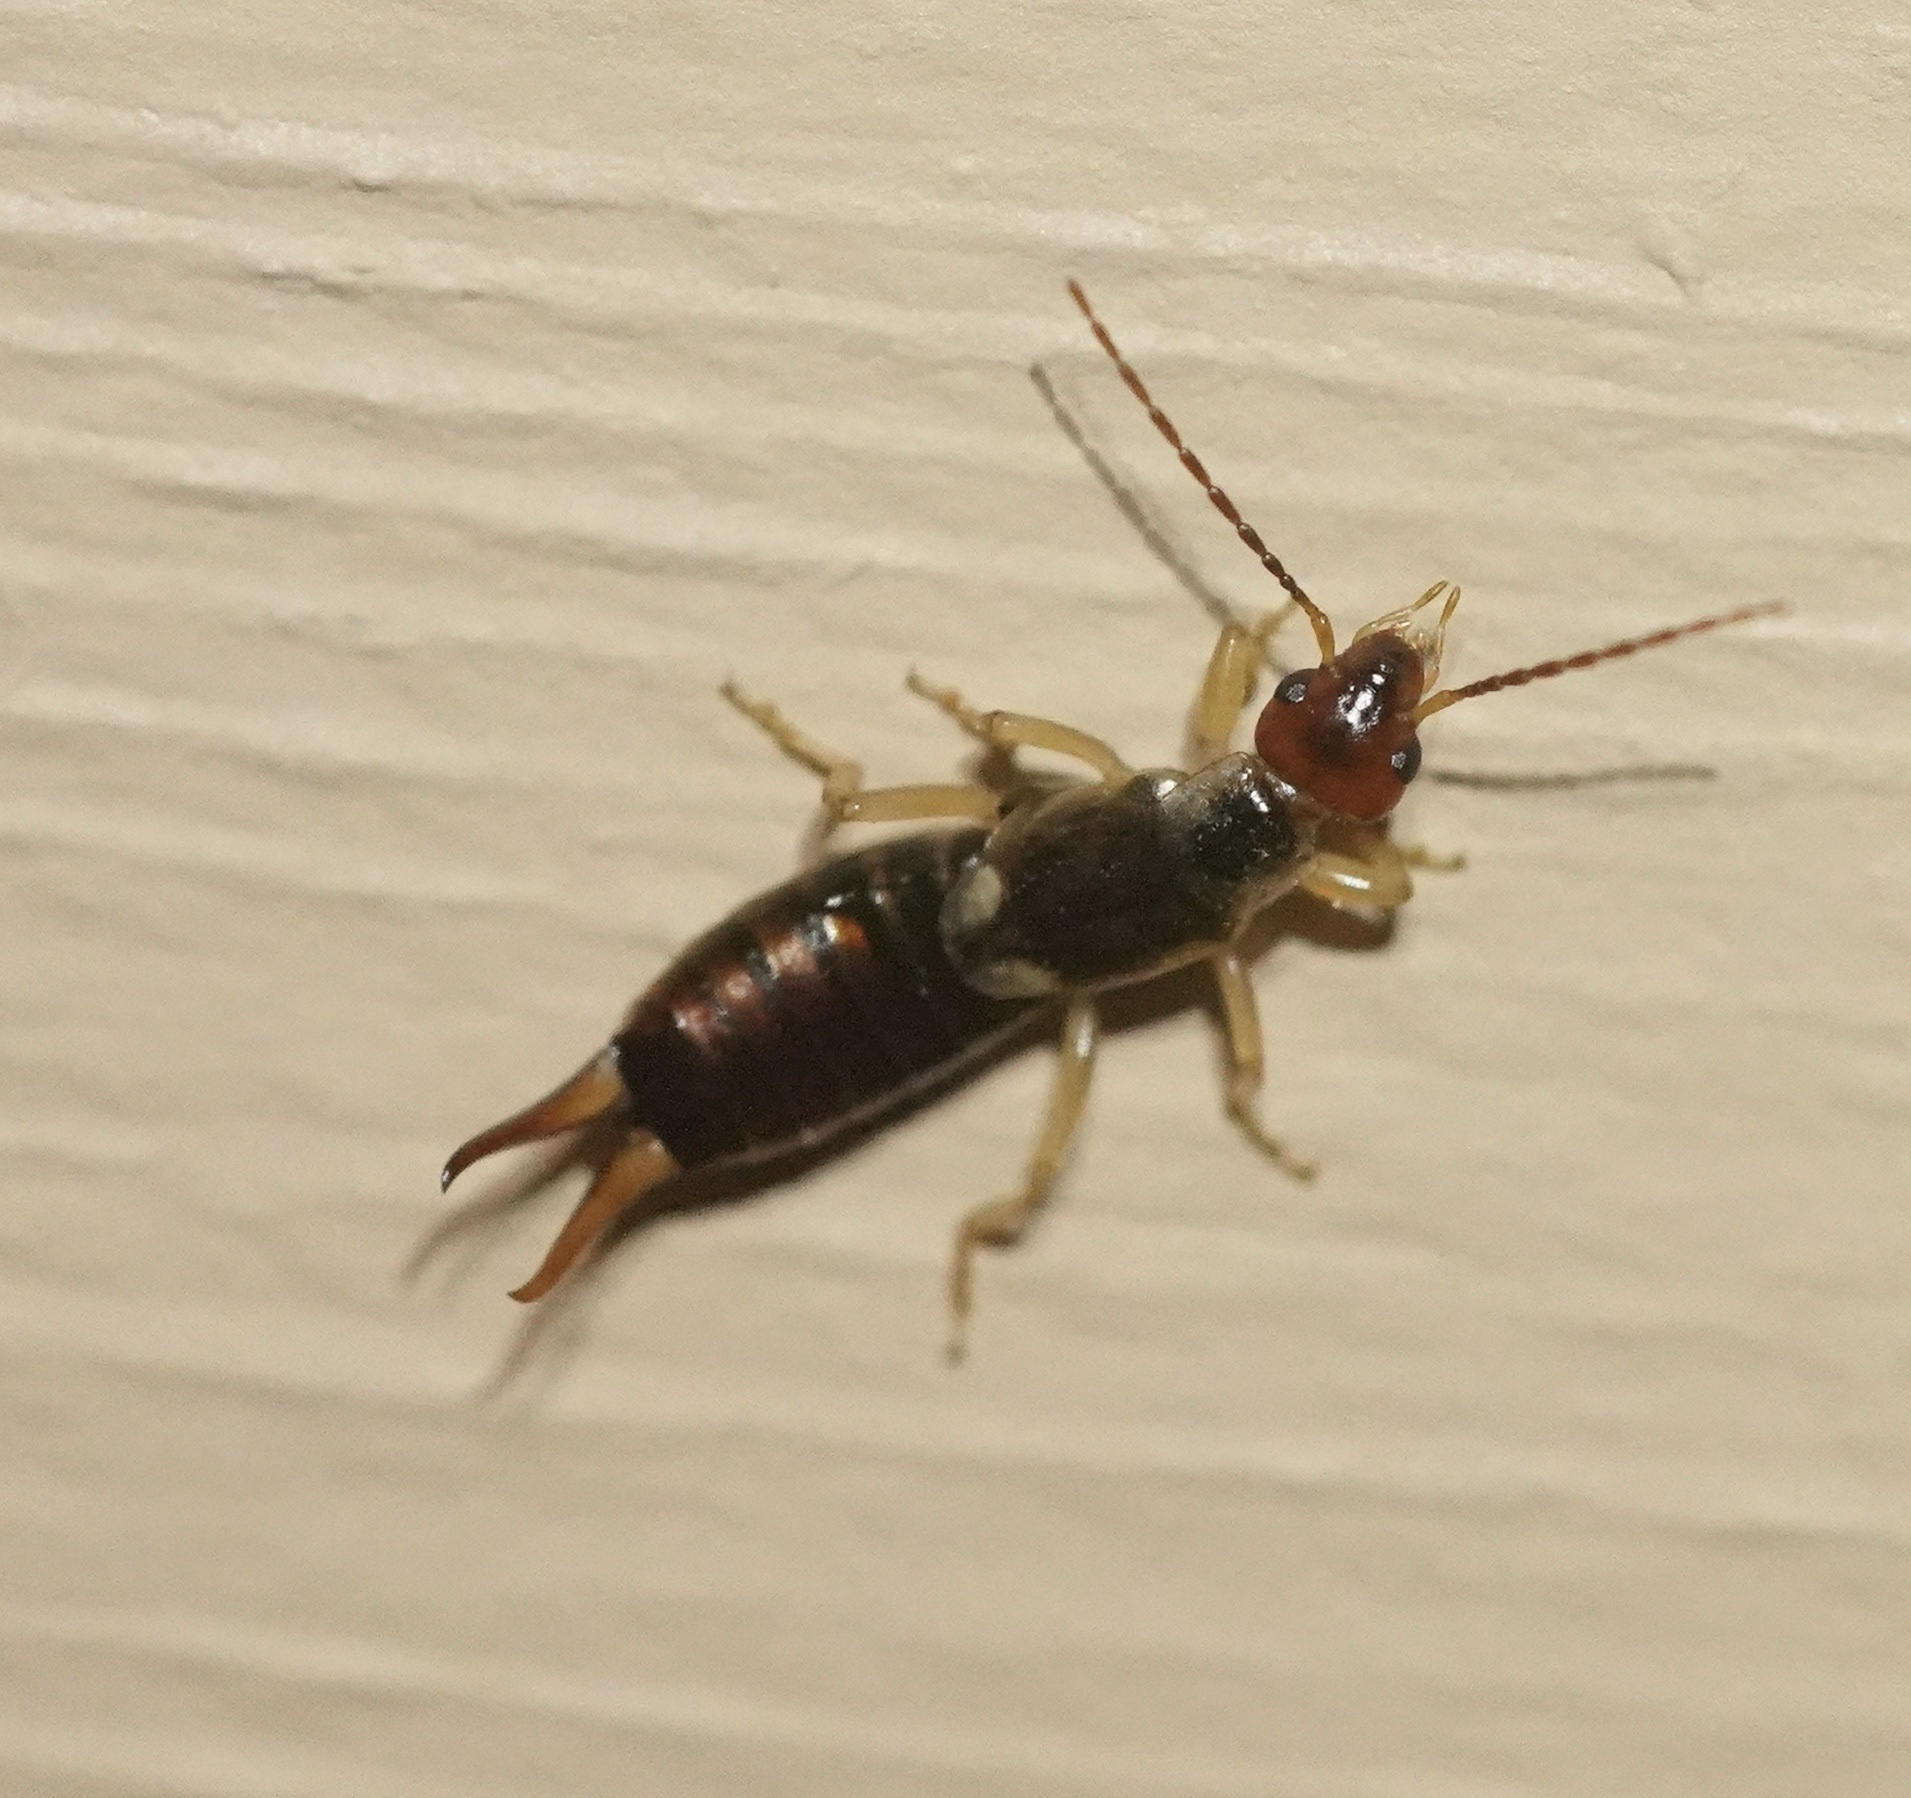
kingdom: Animalia
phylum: Arthropoda
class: Insecta
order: Dermaptera
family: Forficulidae
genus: Forficula
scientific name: Forficula
